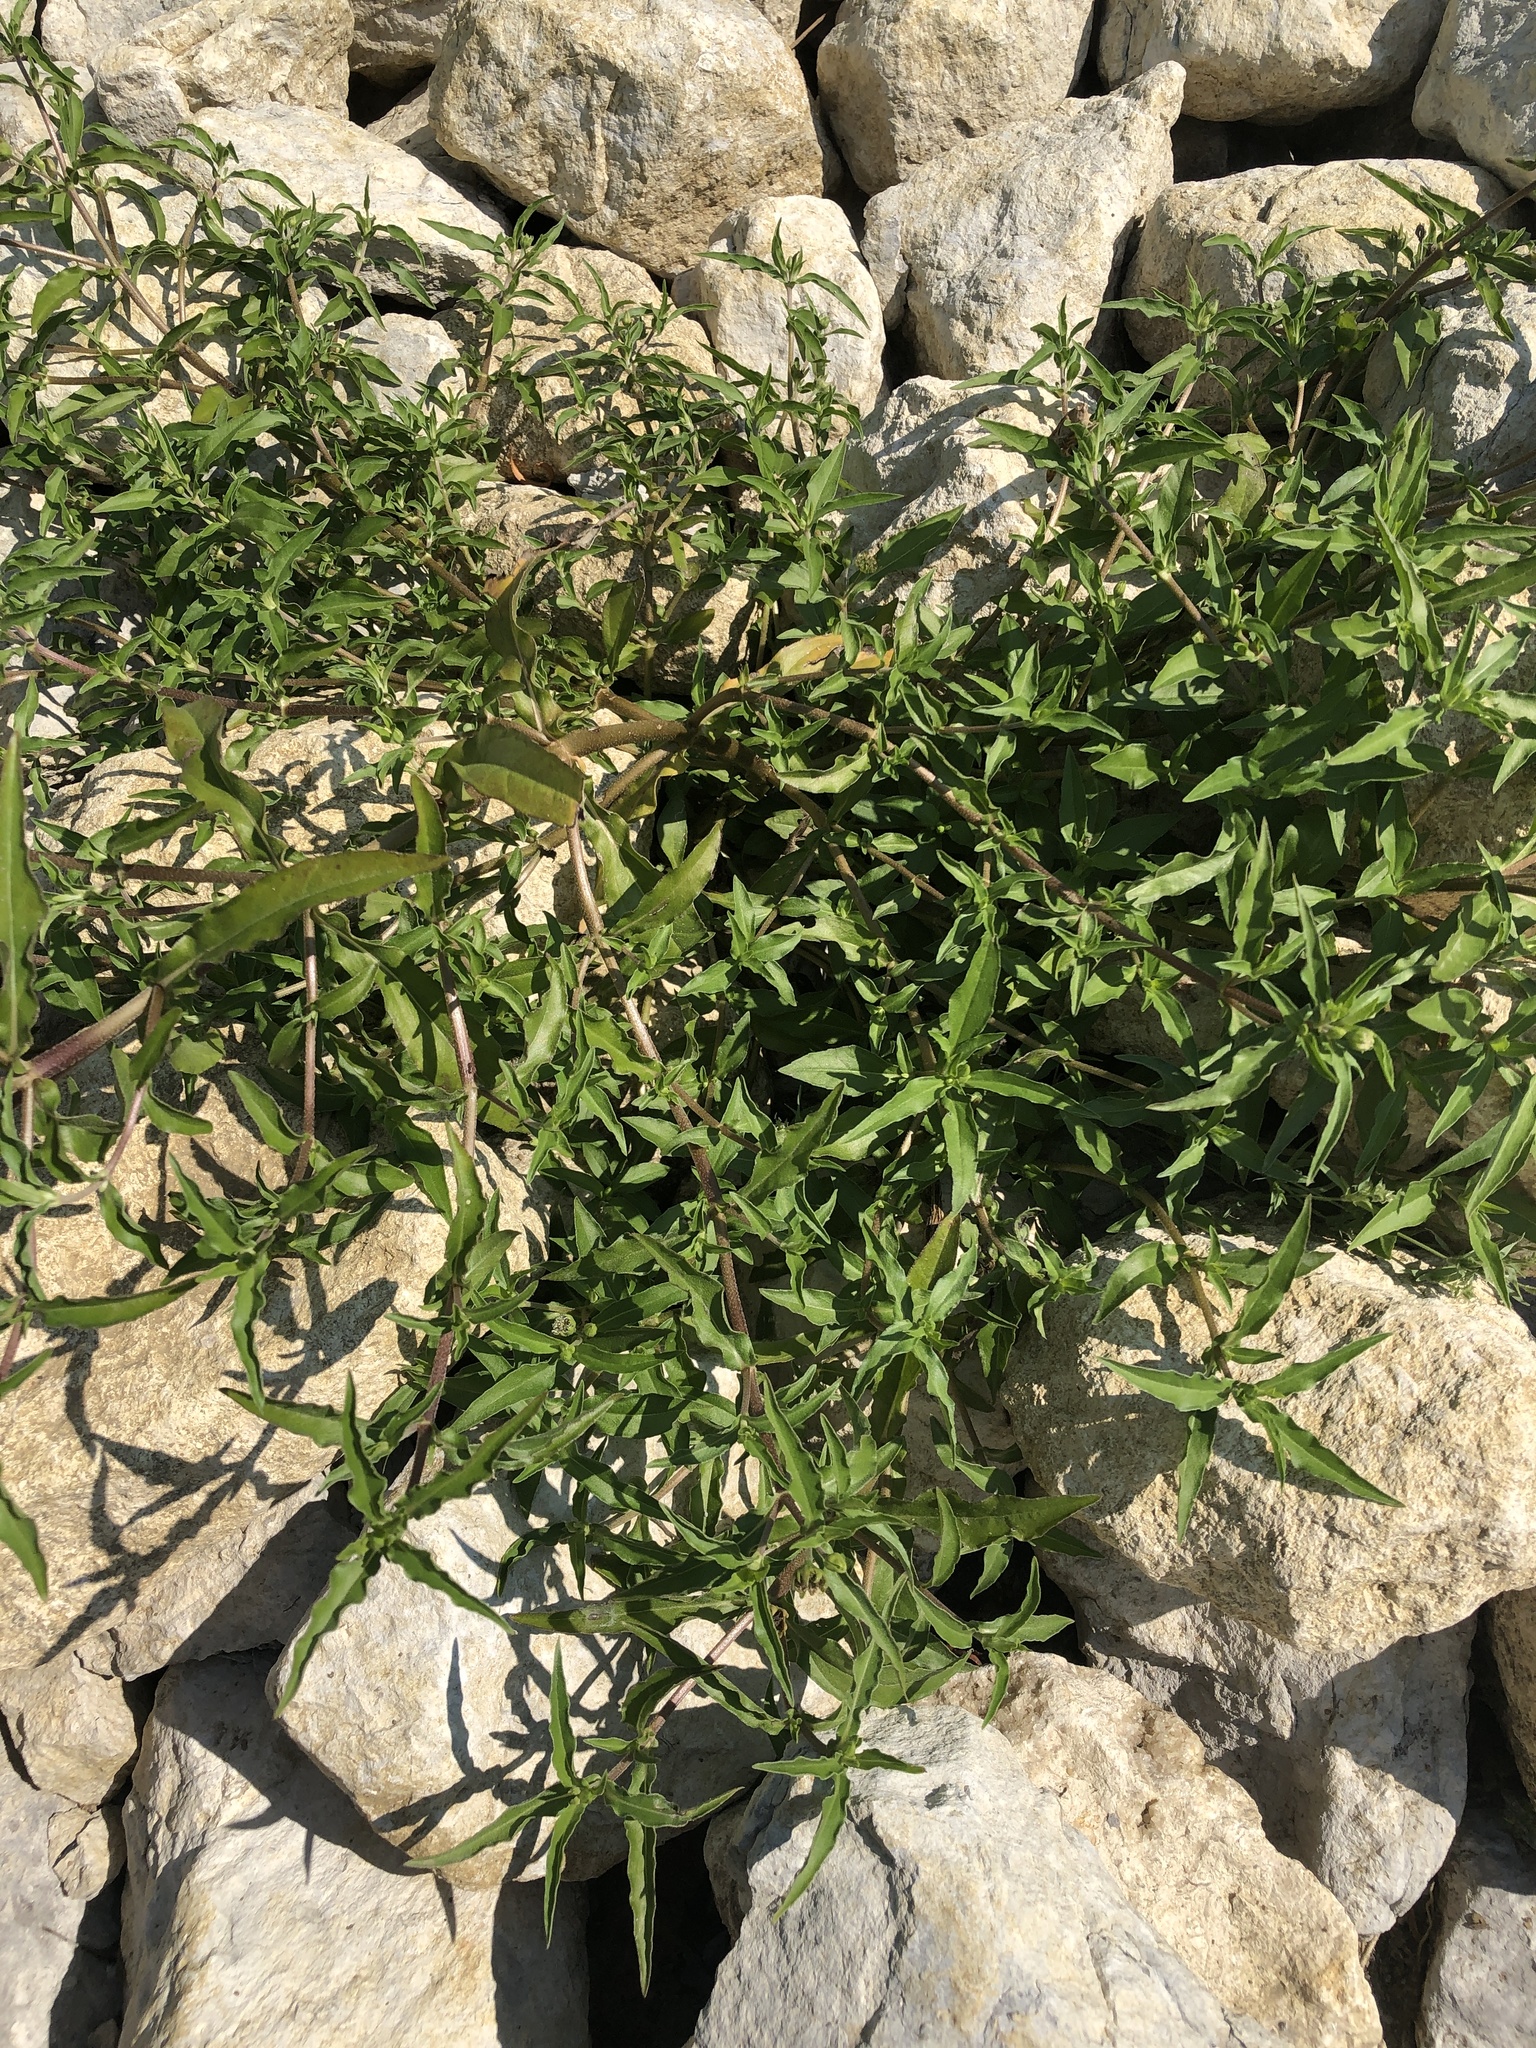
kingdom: Plantae
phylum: Tracheophyta
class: Magnoliopsida
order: Asterales
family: Asteraceae
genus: Eclipta
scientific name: Eclipta prostrata
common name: False daisy
